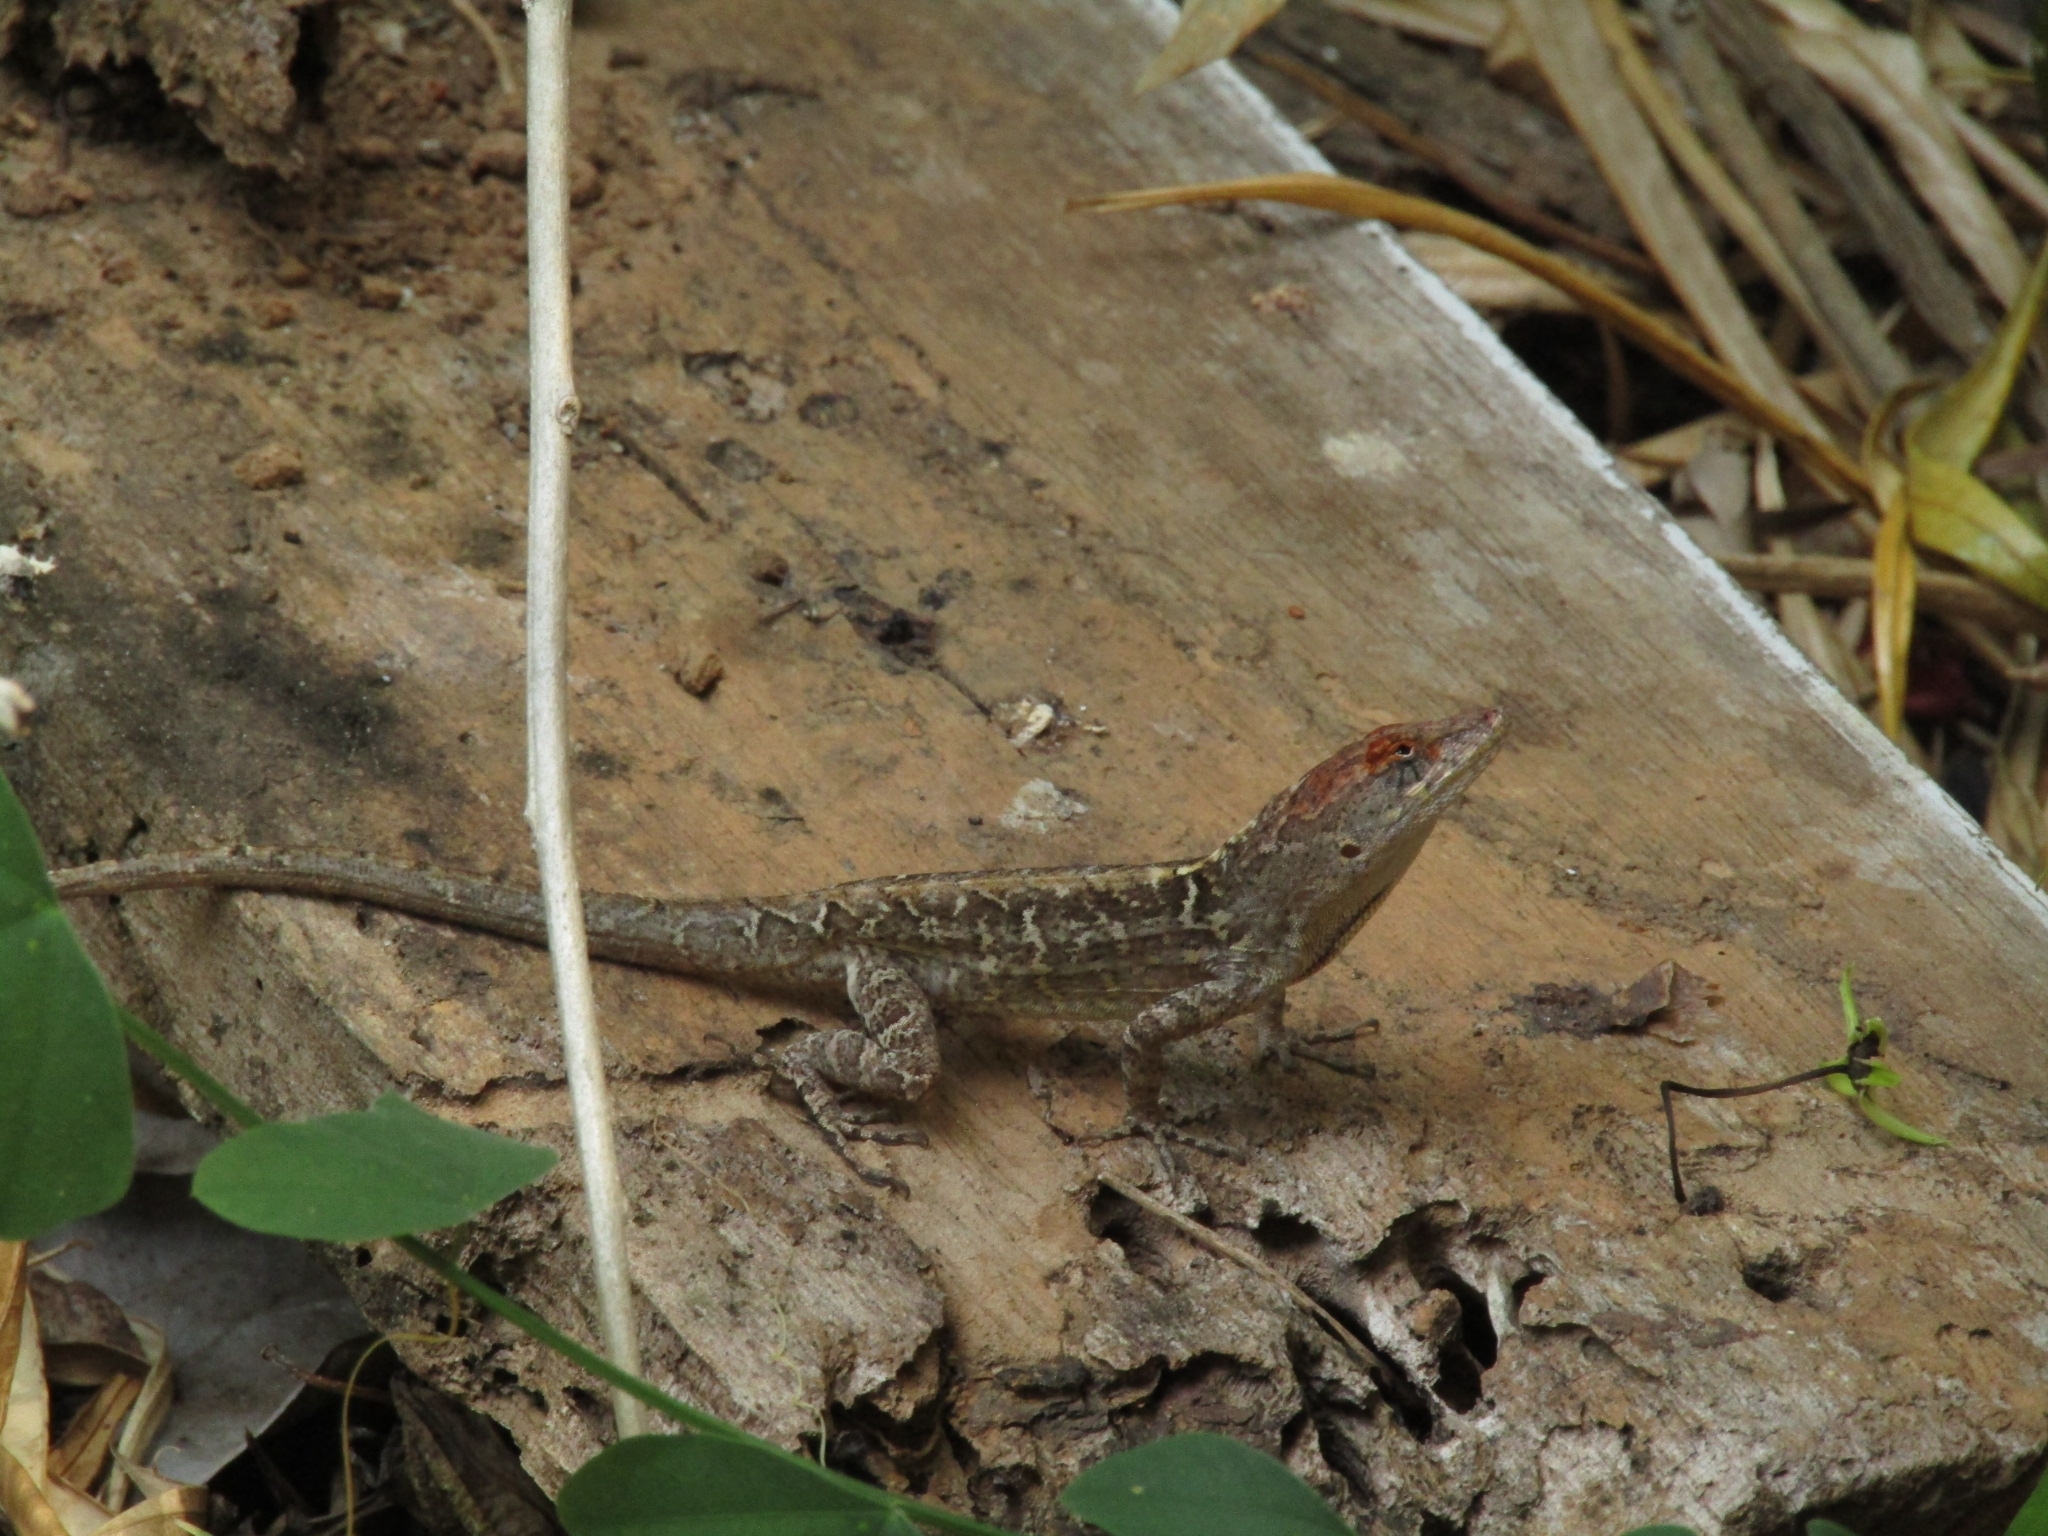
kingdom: Animalia
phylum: Chordata
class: Squamata
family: Dactyloidae
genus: Anolis
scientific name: Anolis sagrei
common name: Brown anole
